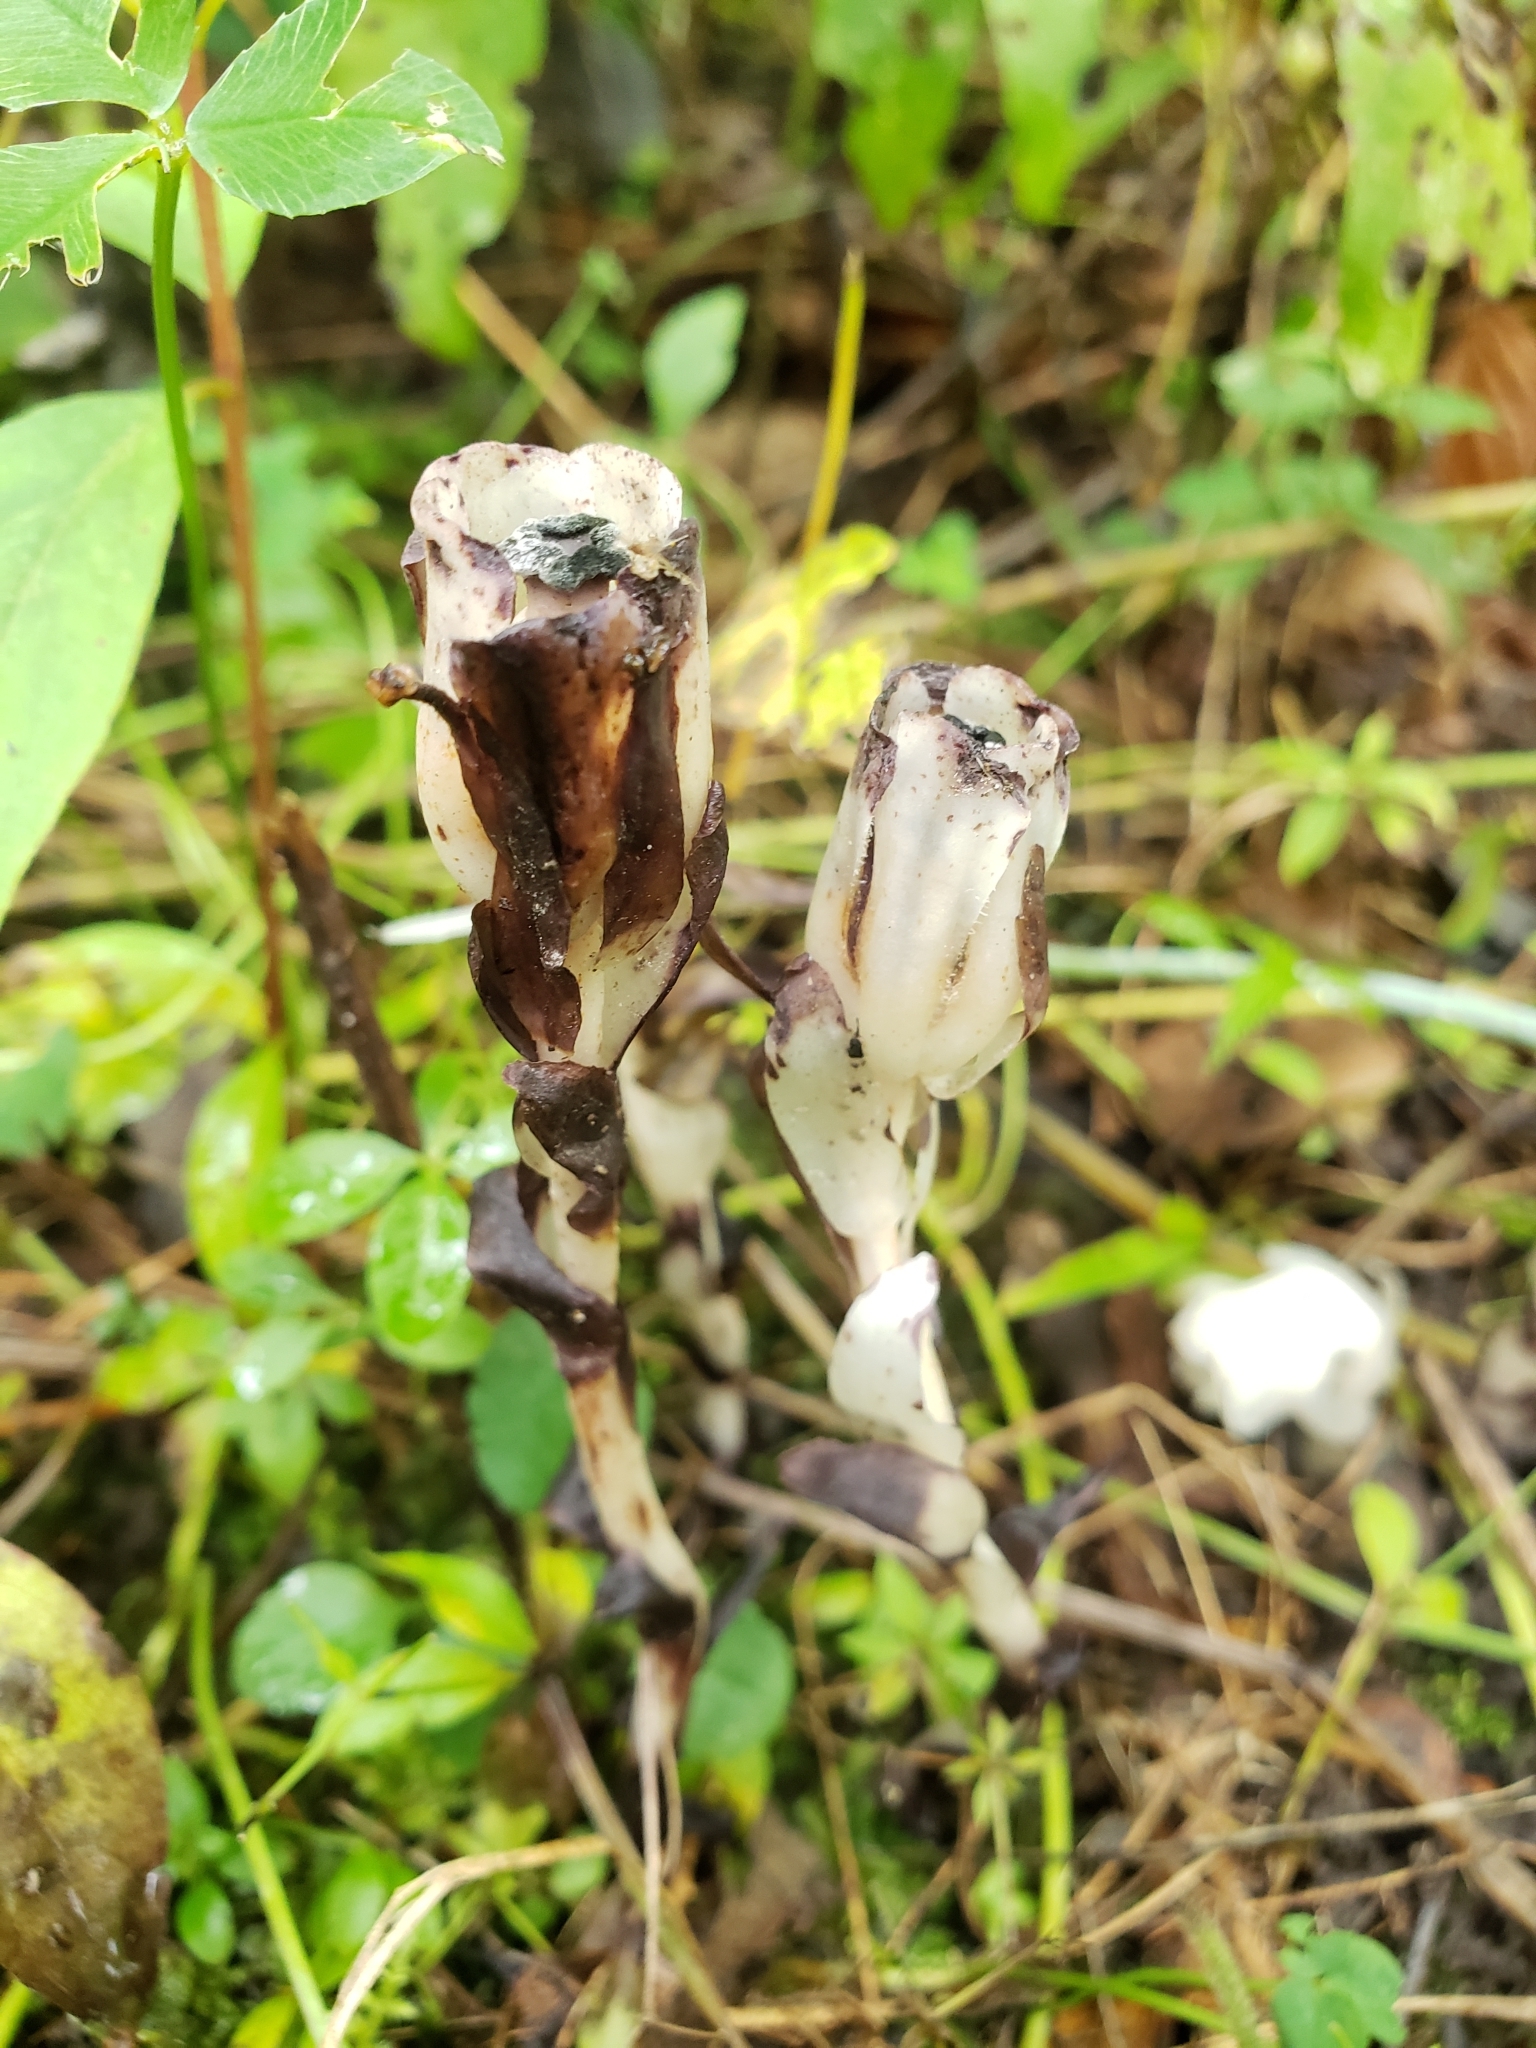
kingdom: Plantae
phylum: Tracheophyta
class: Magnoliopsida
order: Ericales
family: Ericaceae
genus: Monotropa
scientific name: Monotropa uniflora
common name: Convulsion root
